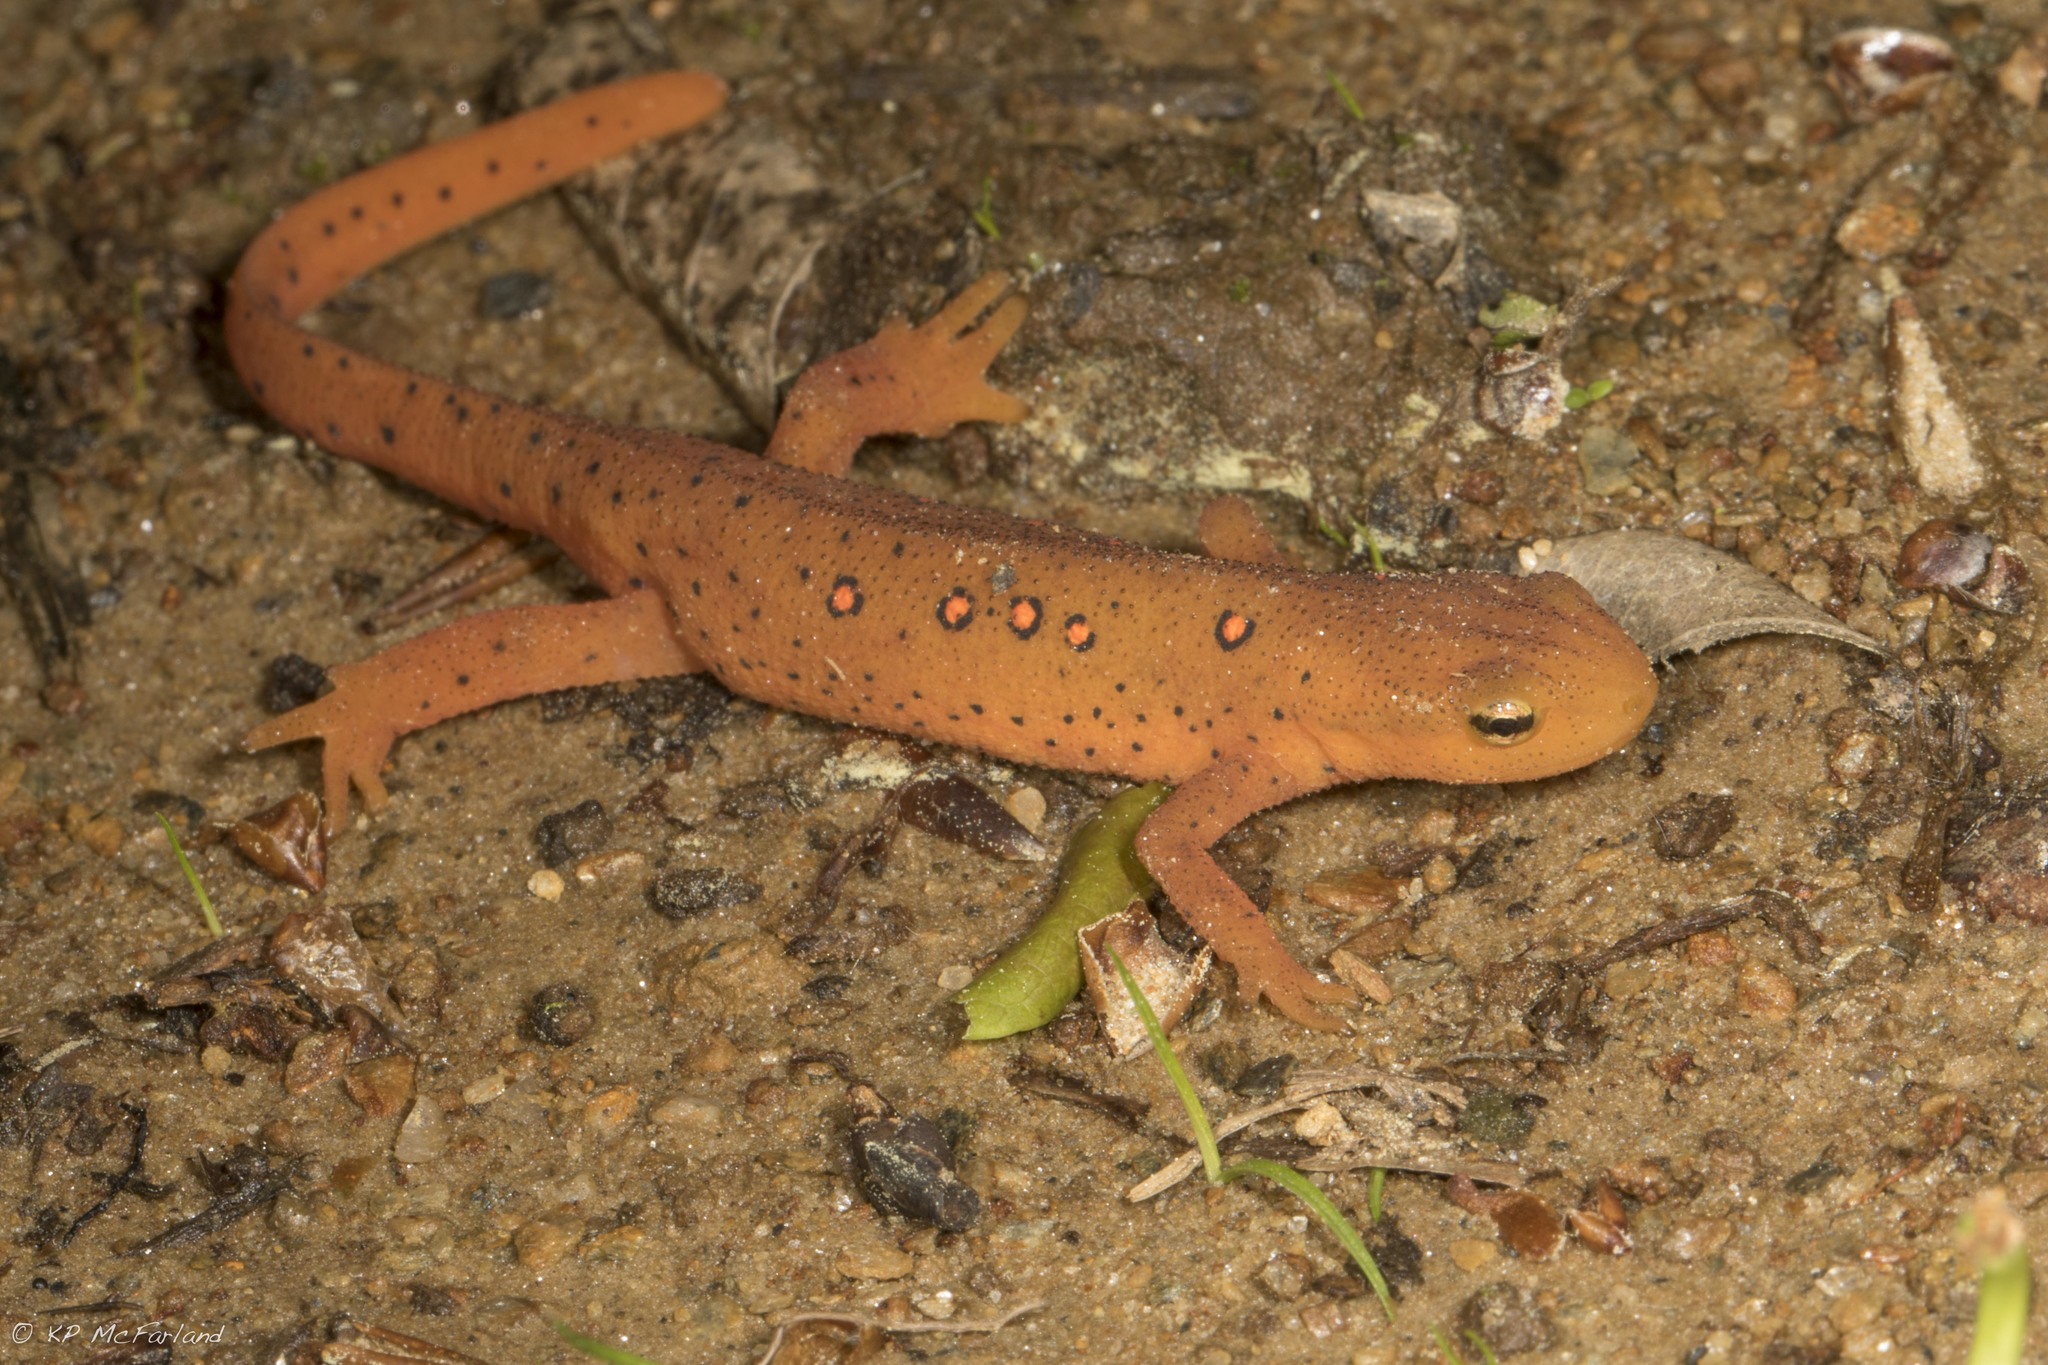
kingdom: Animalia
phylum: Chordata
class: Amphibia
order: Caudata
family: Salamandridae
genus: Notophthalmus
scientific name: Notophthalmus viridescens
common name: Eastern newt
